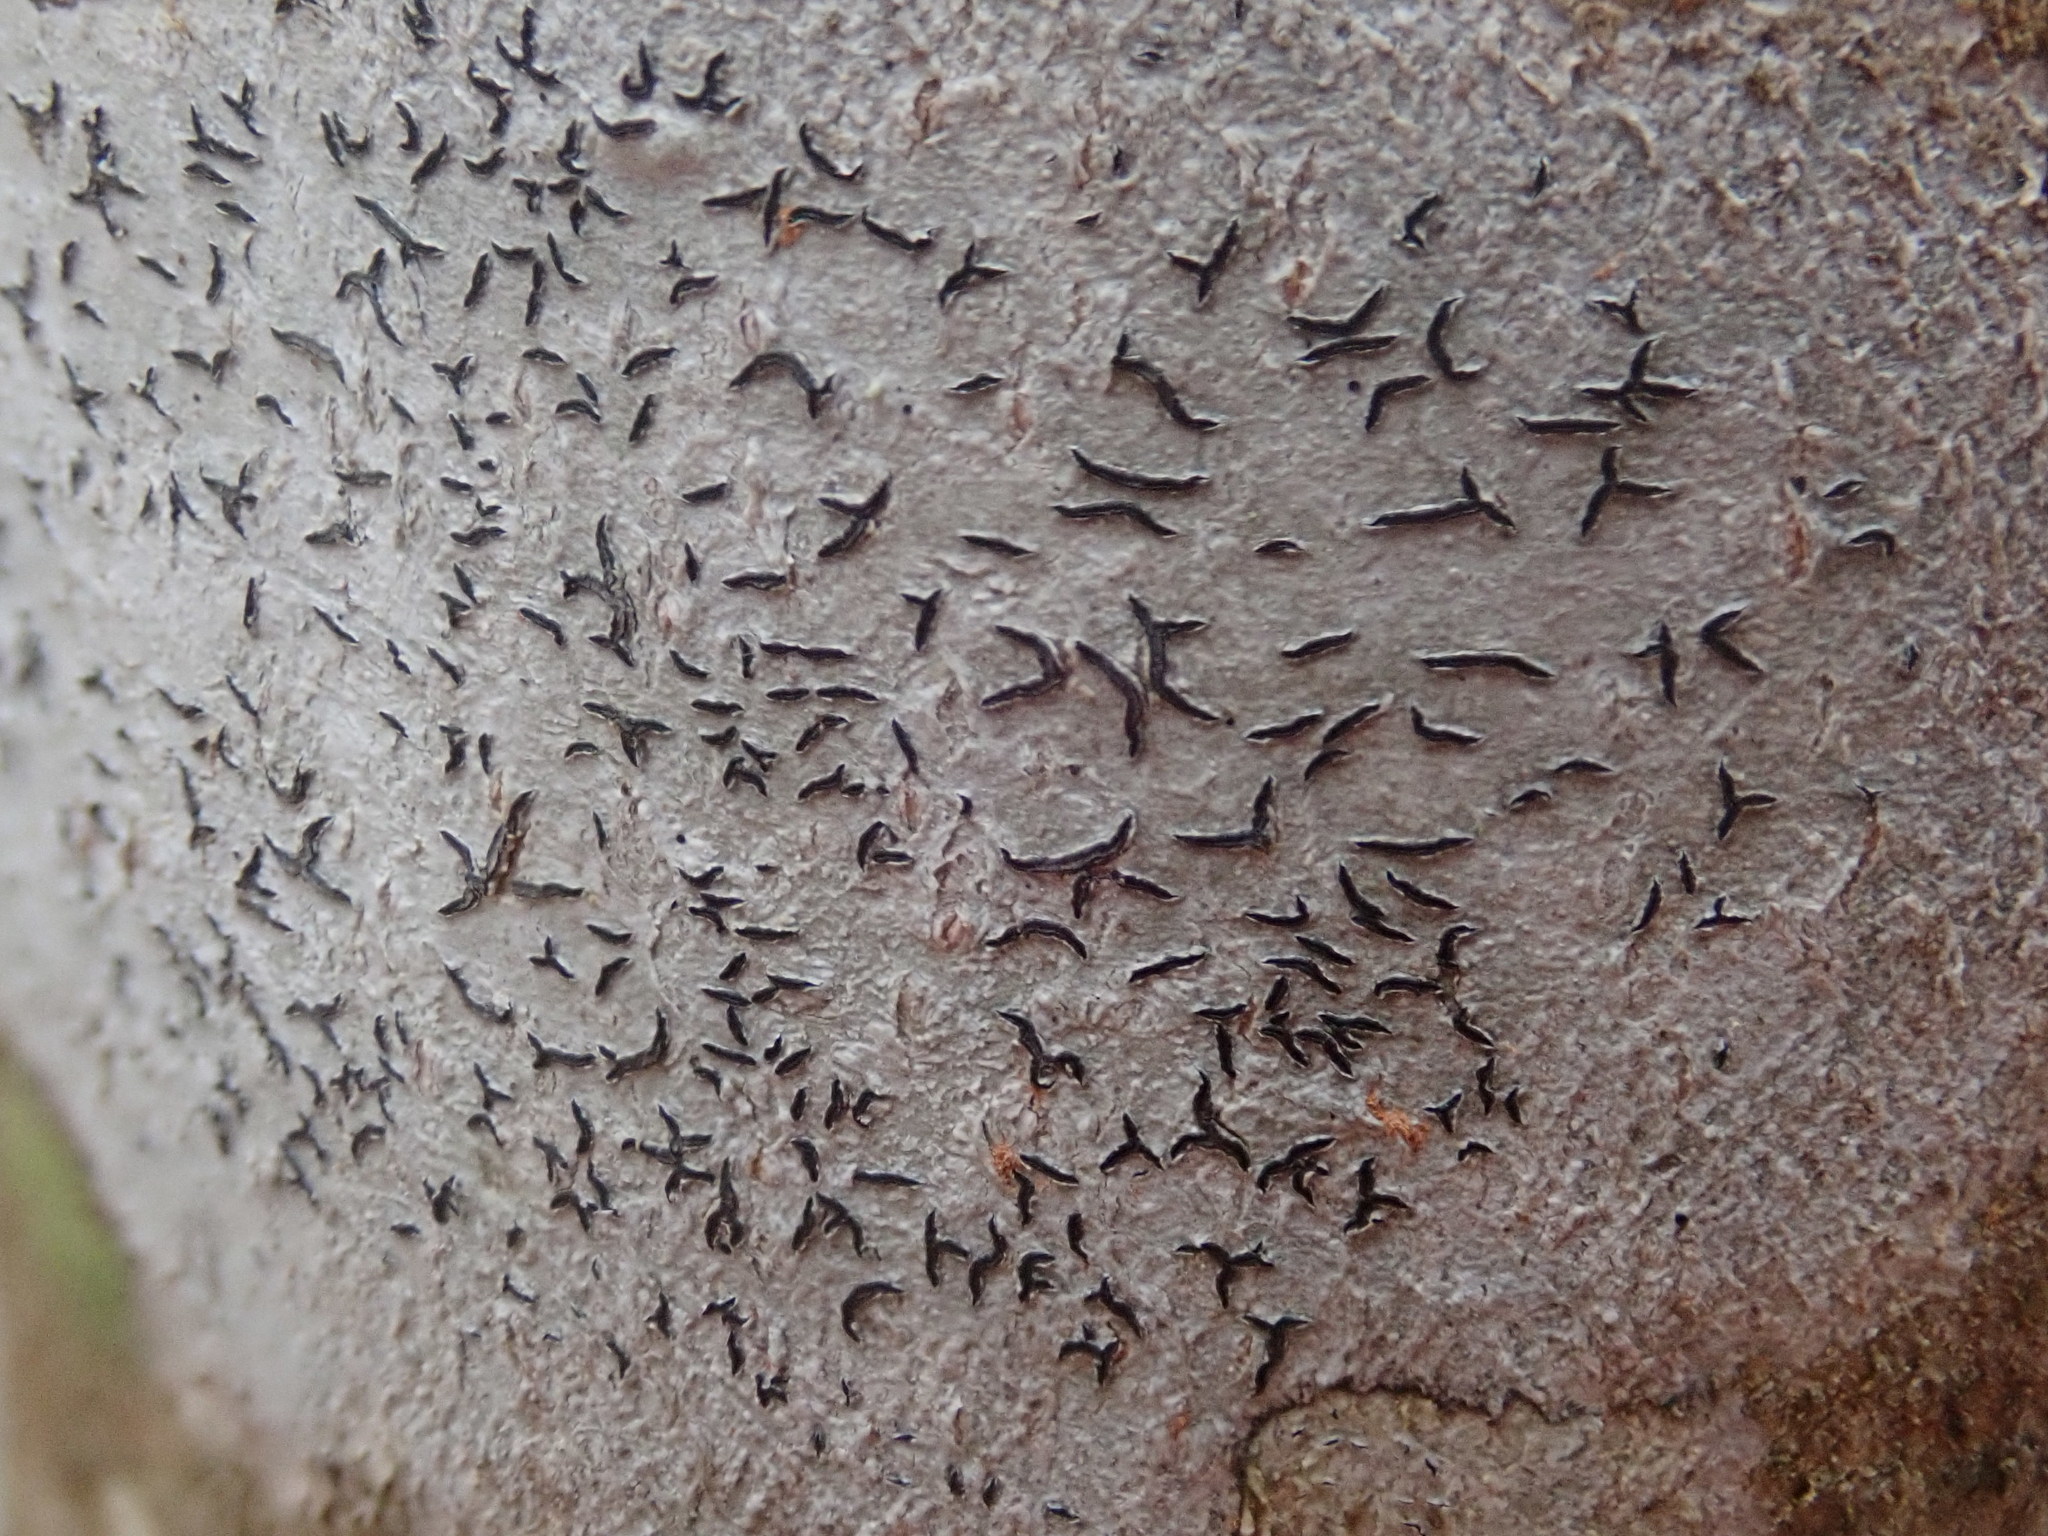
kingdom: Fungi
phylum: Ascomycota
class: Lecanoromycetes
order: Ostropales
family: Graphidaceae
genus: Graphis
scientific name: Graphis scripta
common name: Script lichen
